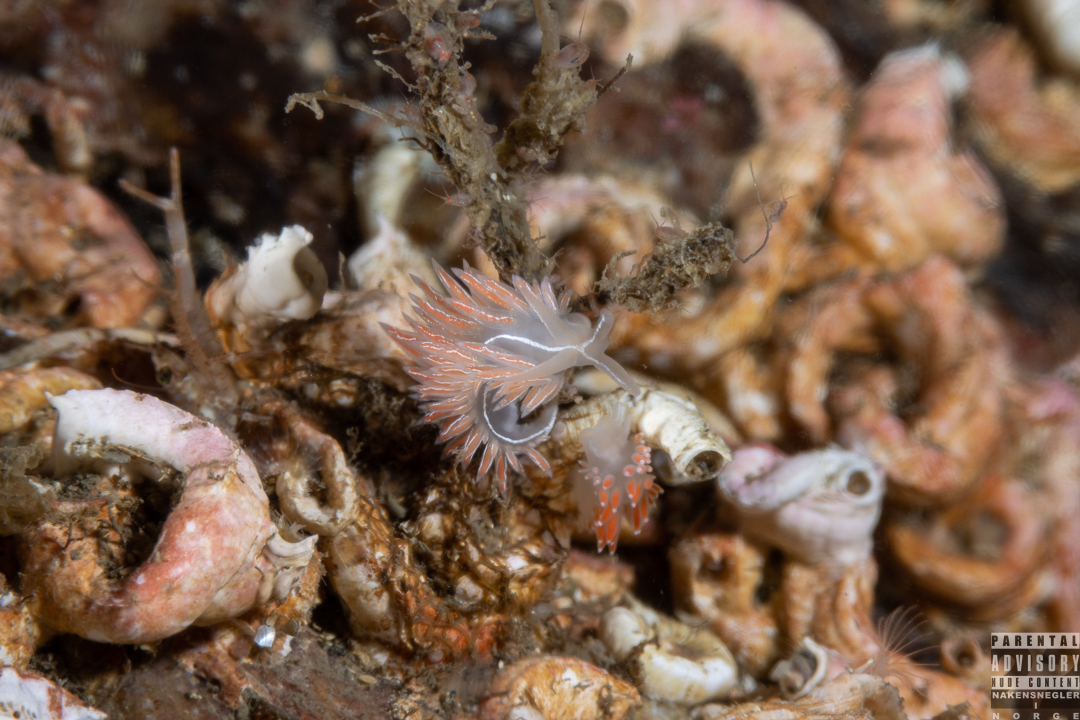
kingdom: Animalia
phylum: Mollusca
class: Gastropoda
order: Nudibranchia
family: Coryphellidae
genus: Coryphella
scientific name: Coryphella chriskaugei
